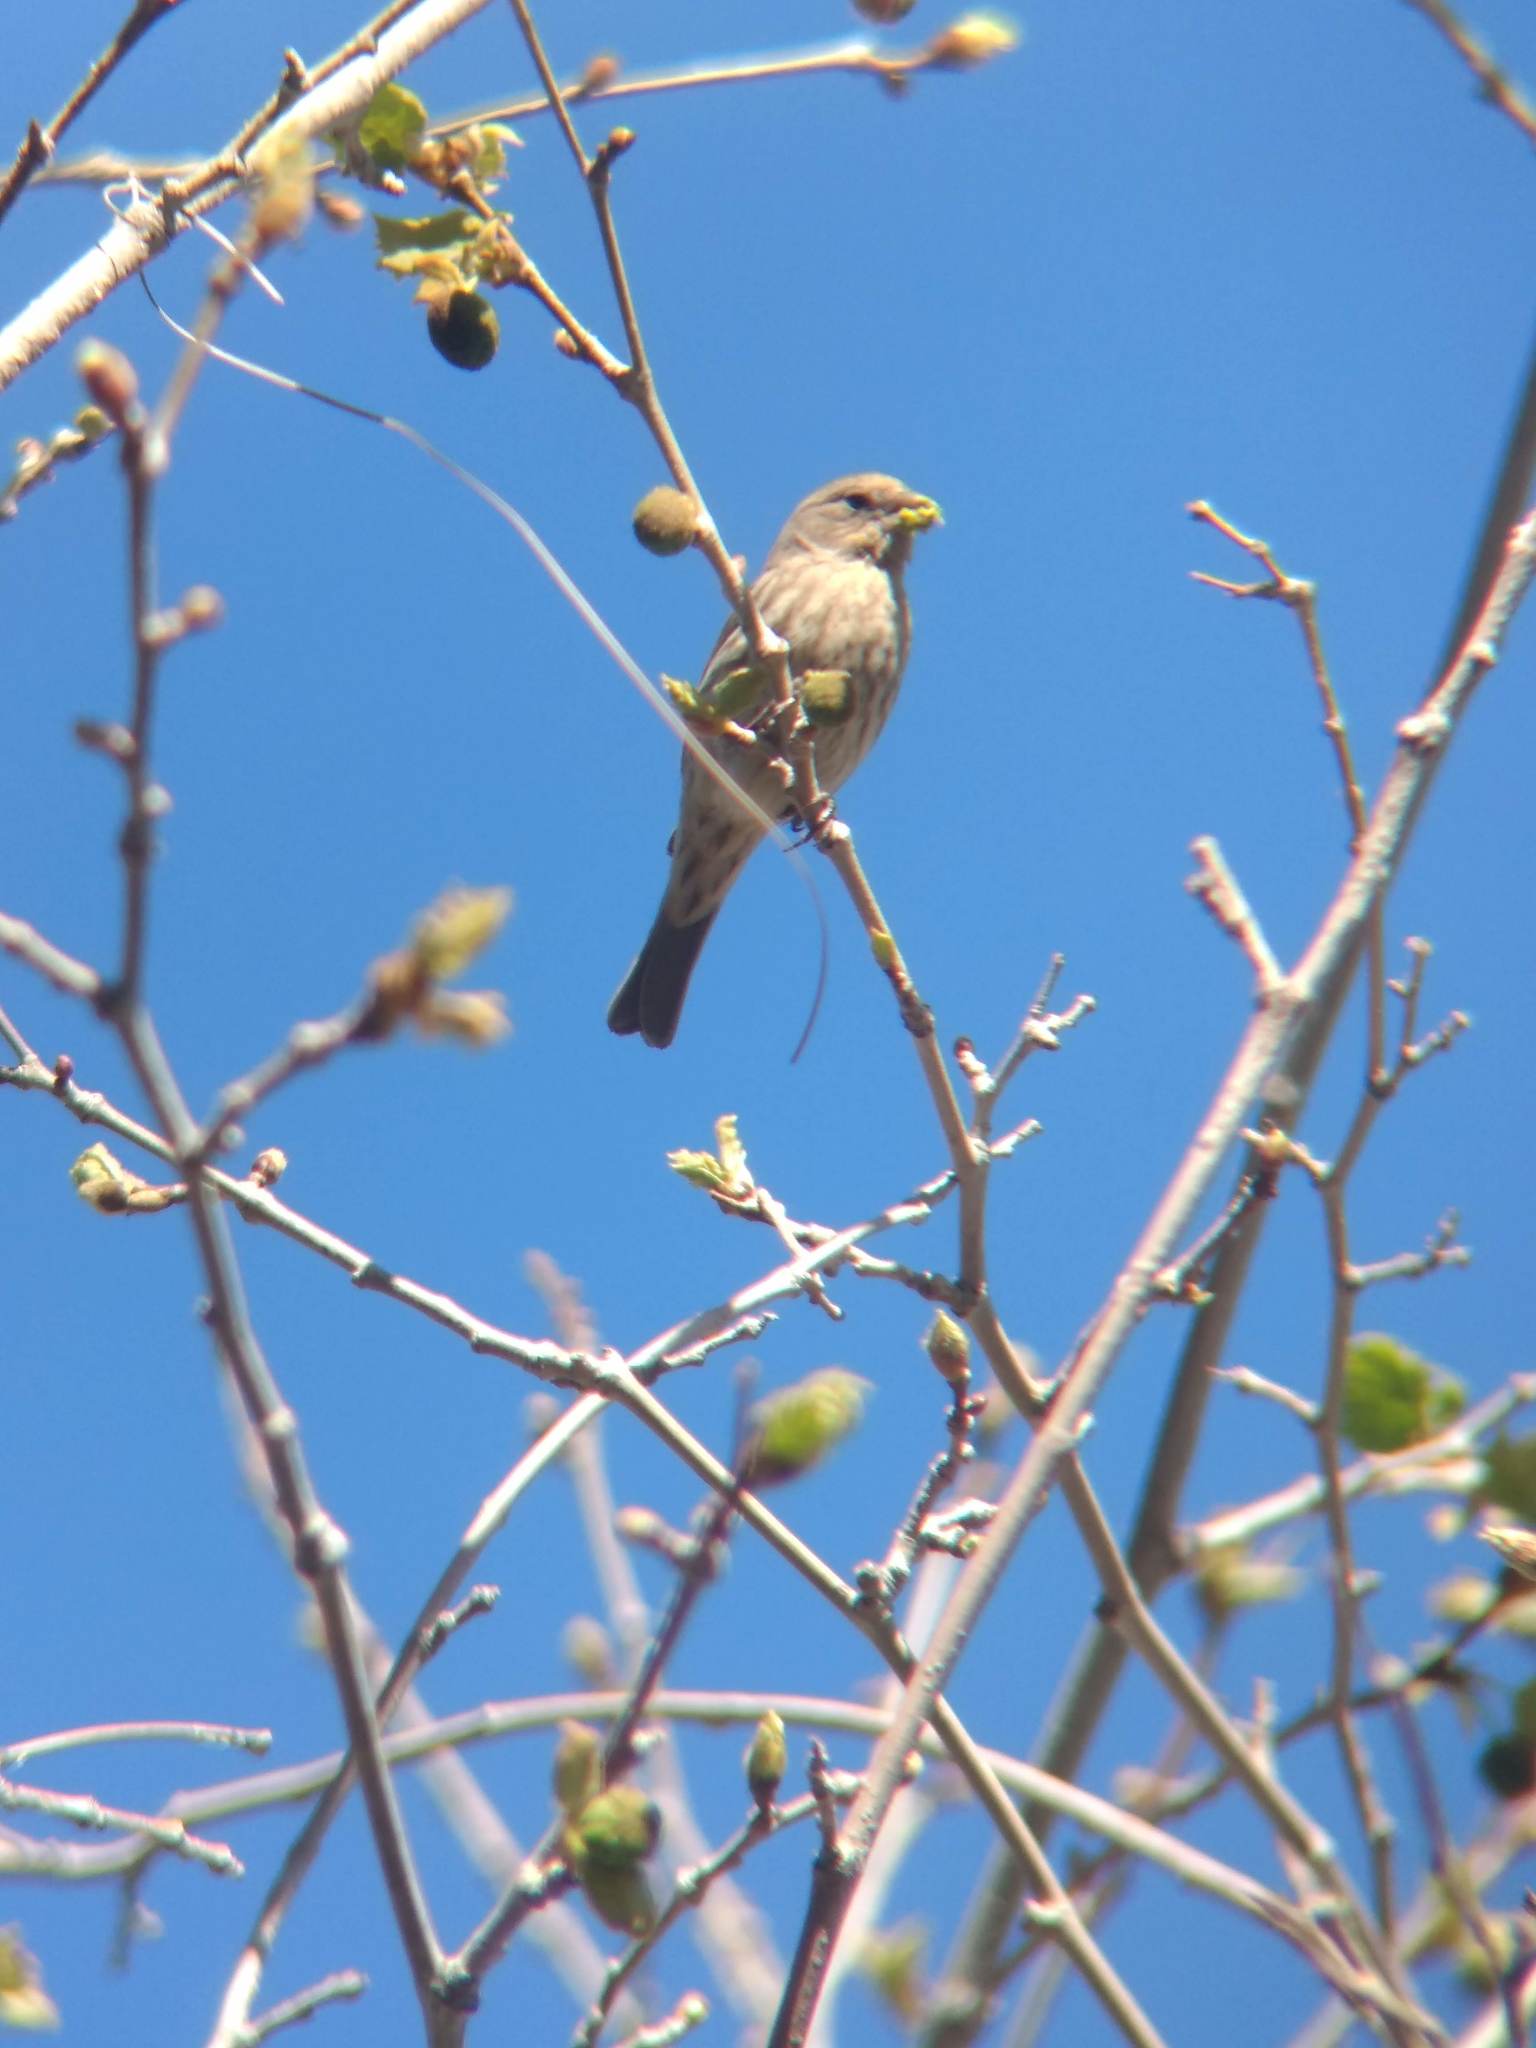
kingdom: Animalia
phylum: Chordata
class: Aves
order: Passeriformes
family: Fringillidae
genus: Haemorhous
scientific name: Haemorhous mexicanus
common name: House finch
